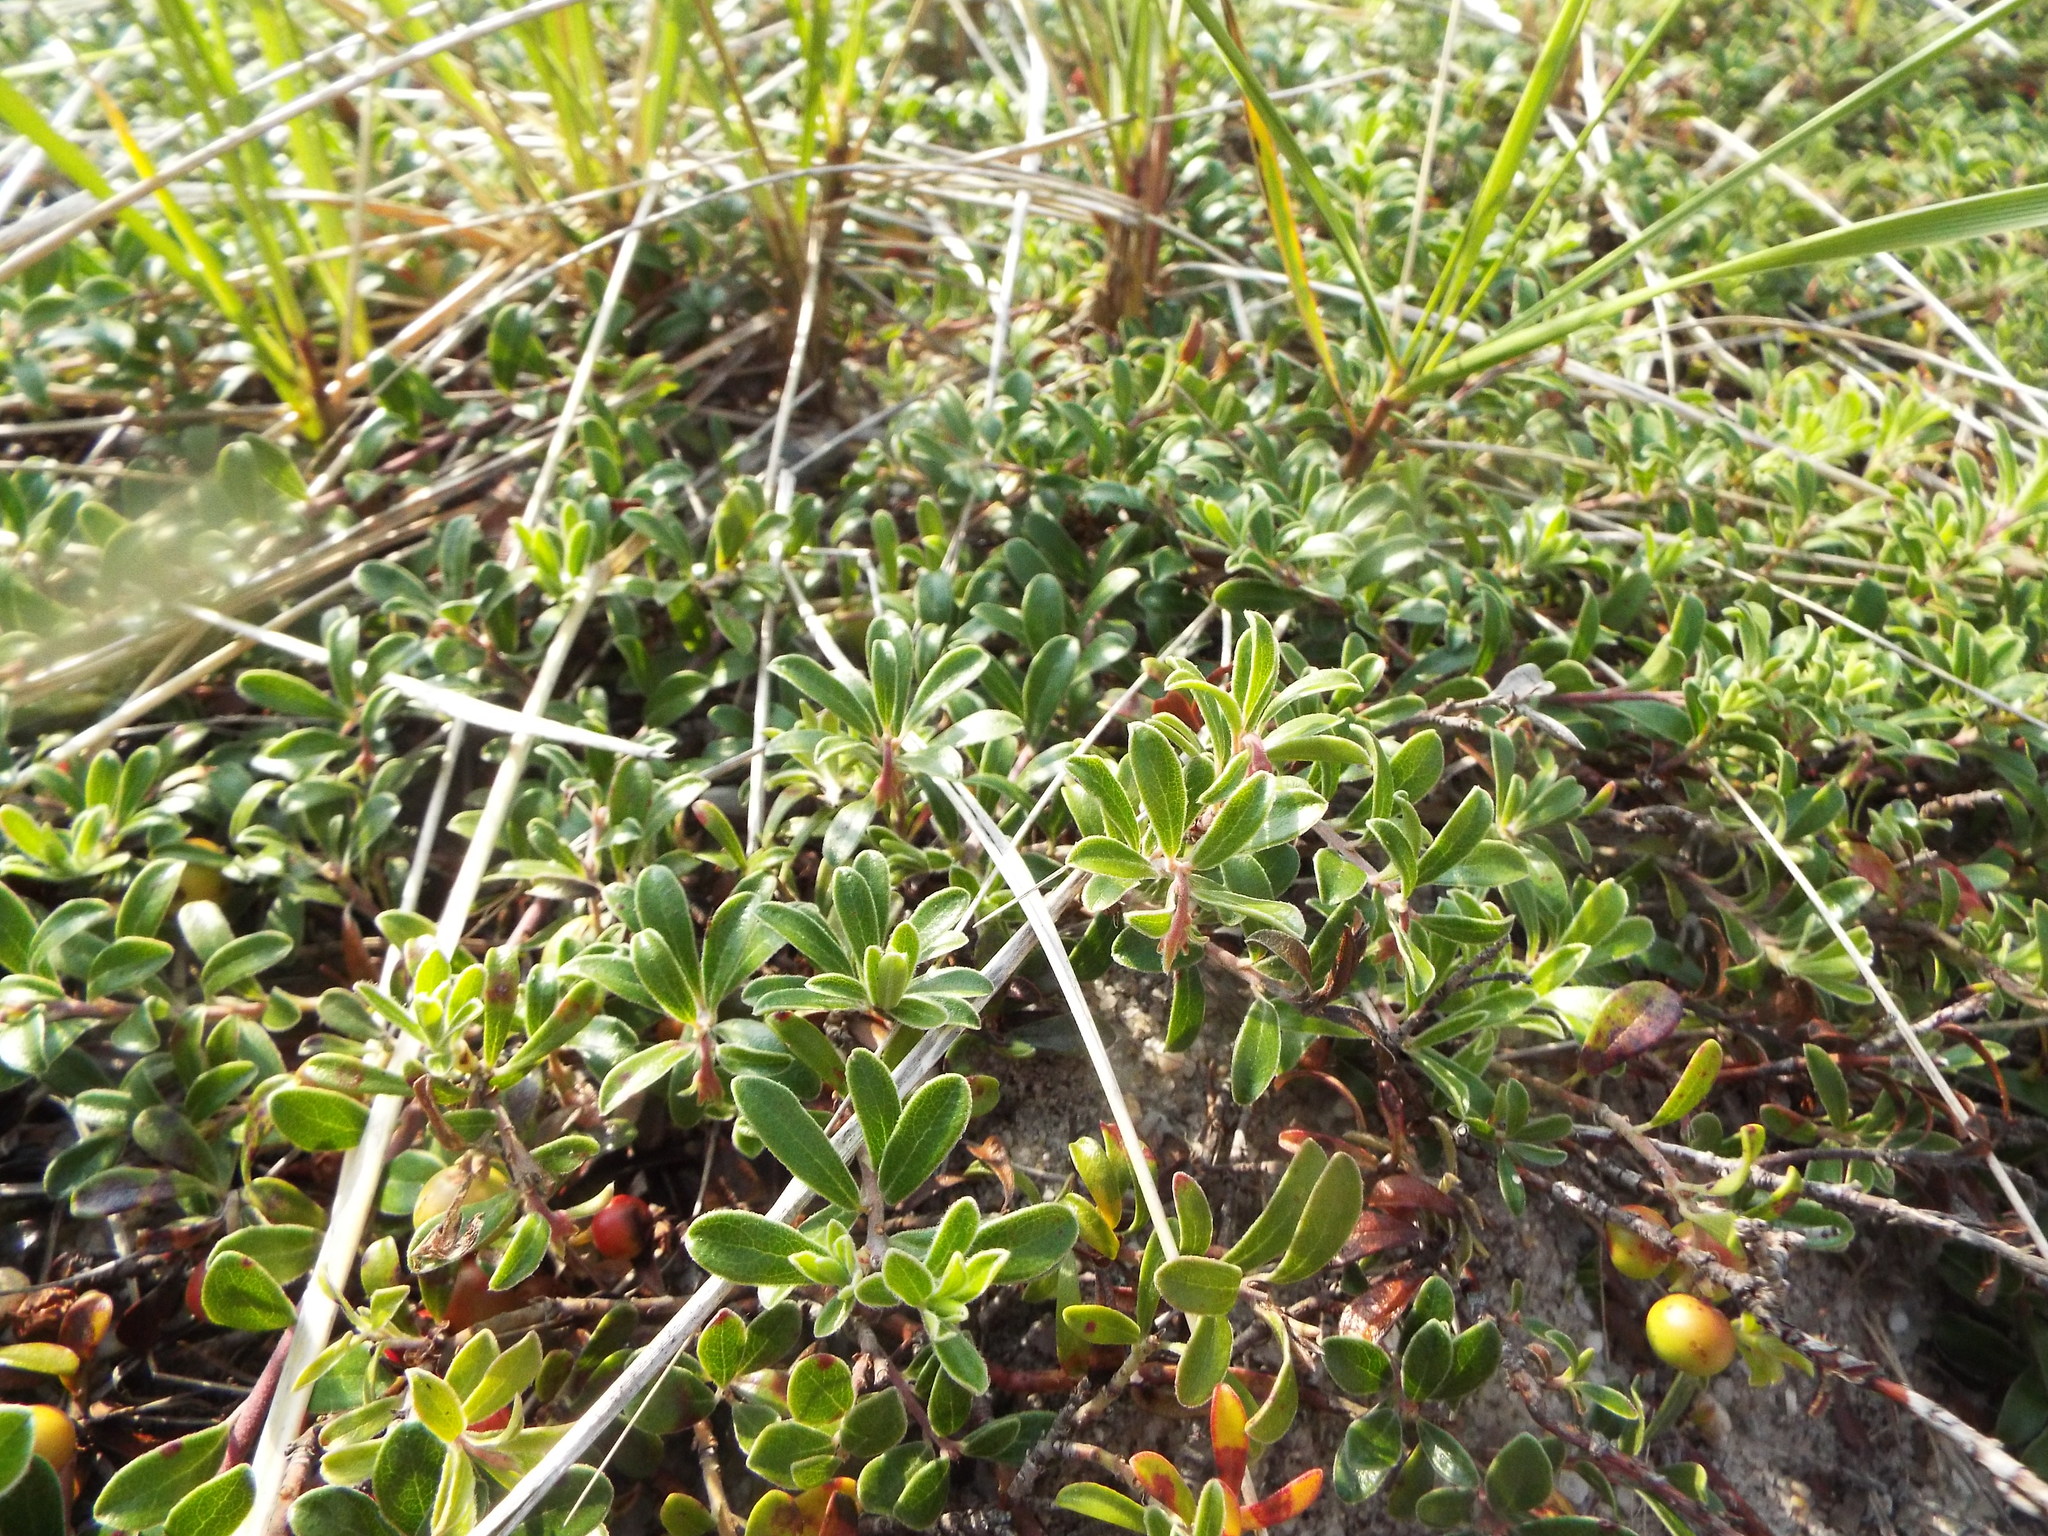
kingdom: Plantae
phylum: Tracheophyta
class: Magnoliopsida
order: Ericales
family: Ericaceae
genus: Arctostaphylos
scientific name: Arctostaphylos uva-ursi
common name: Bearberry
